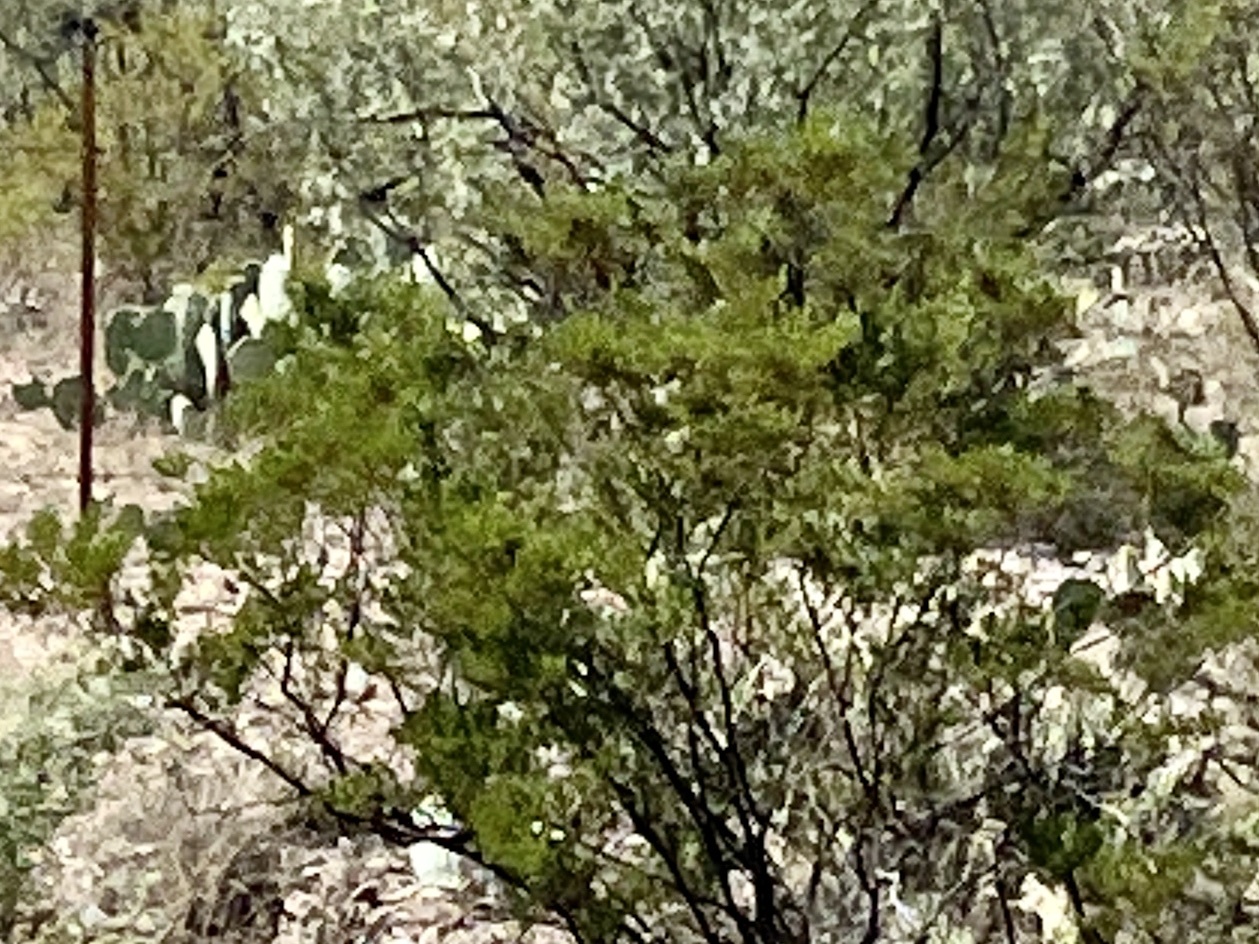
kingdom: Plantae
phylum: Tracheophyta
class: Magnoliopsida
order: Zygophyllales
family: Zygophyllaceae
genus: Larrea
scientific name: Larrea tridentata
